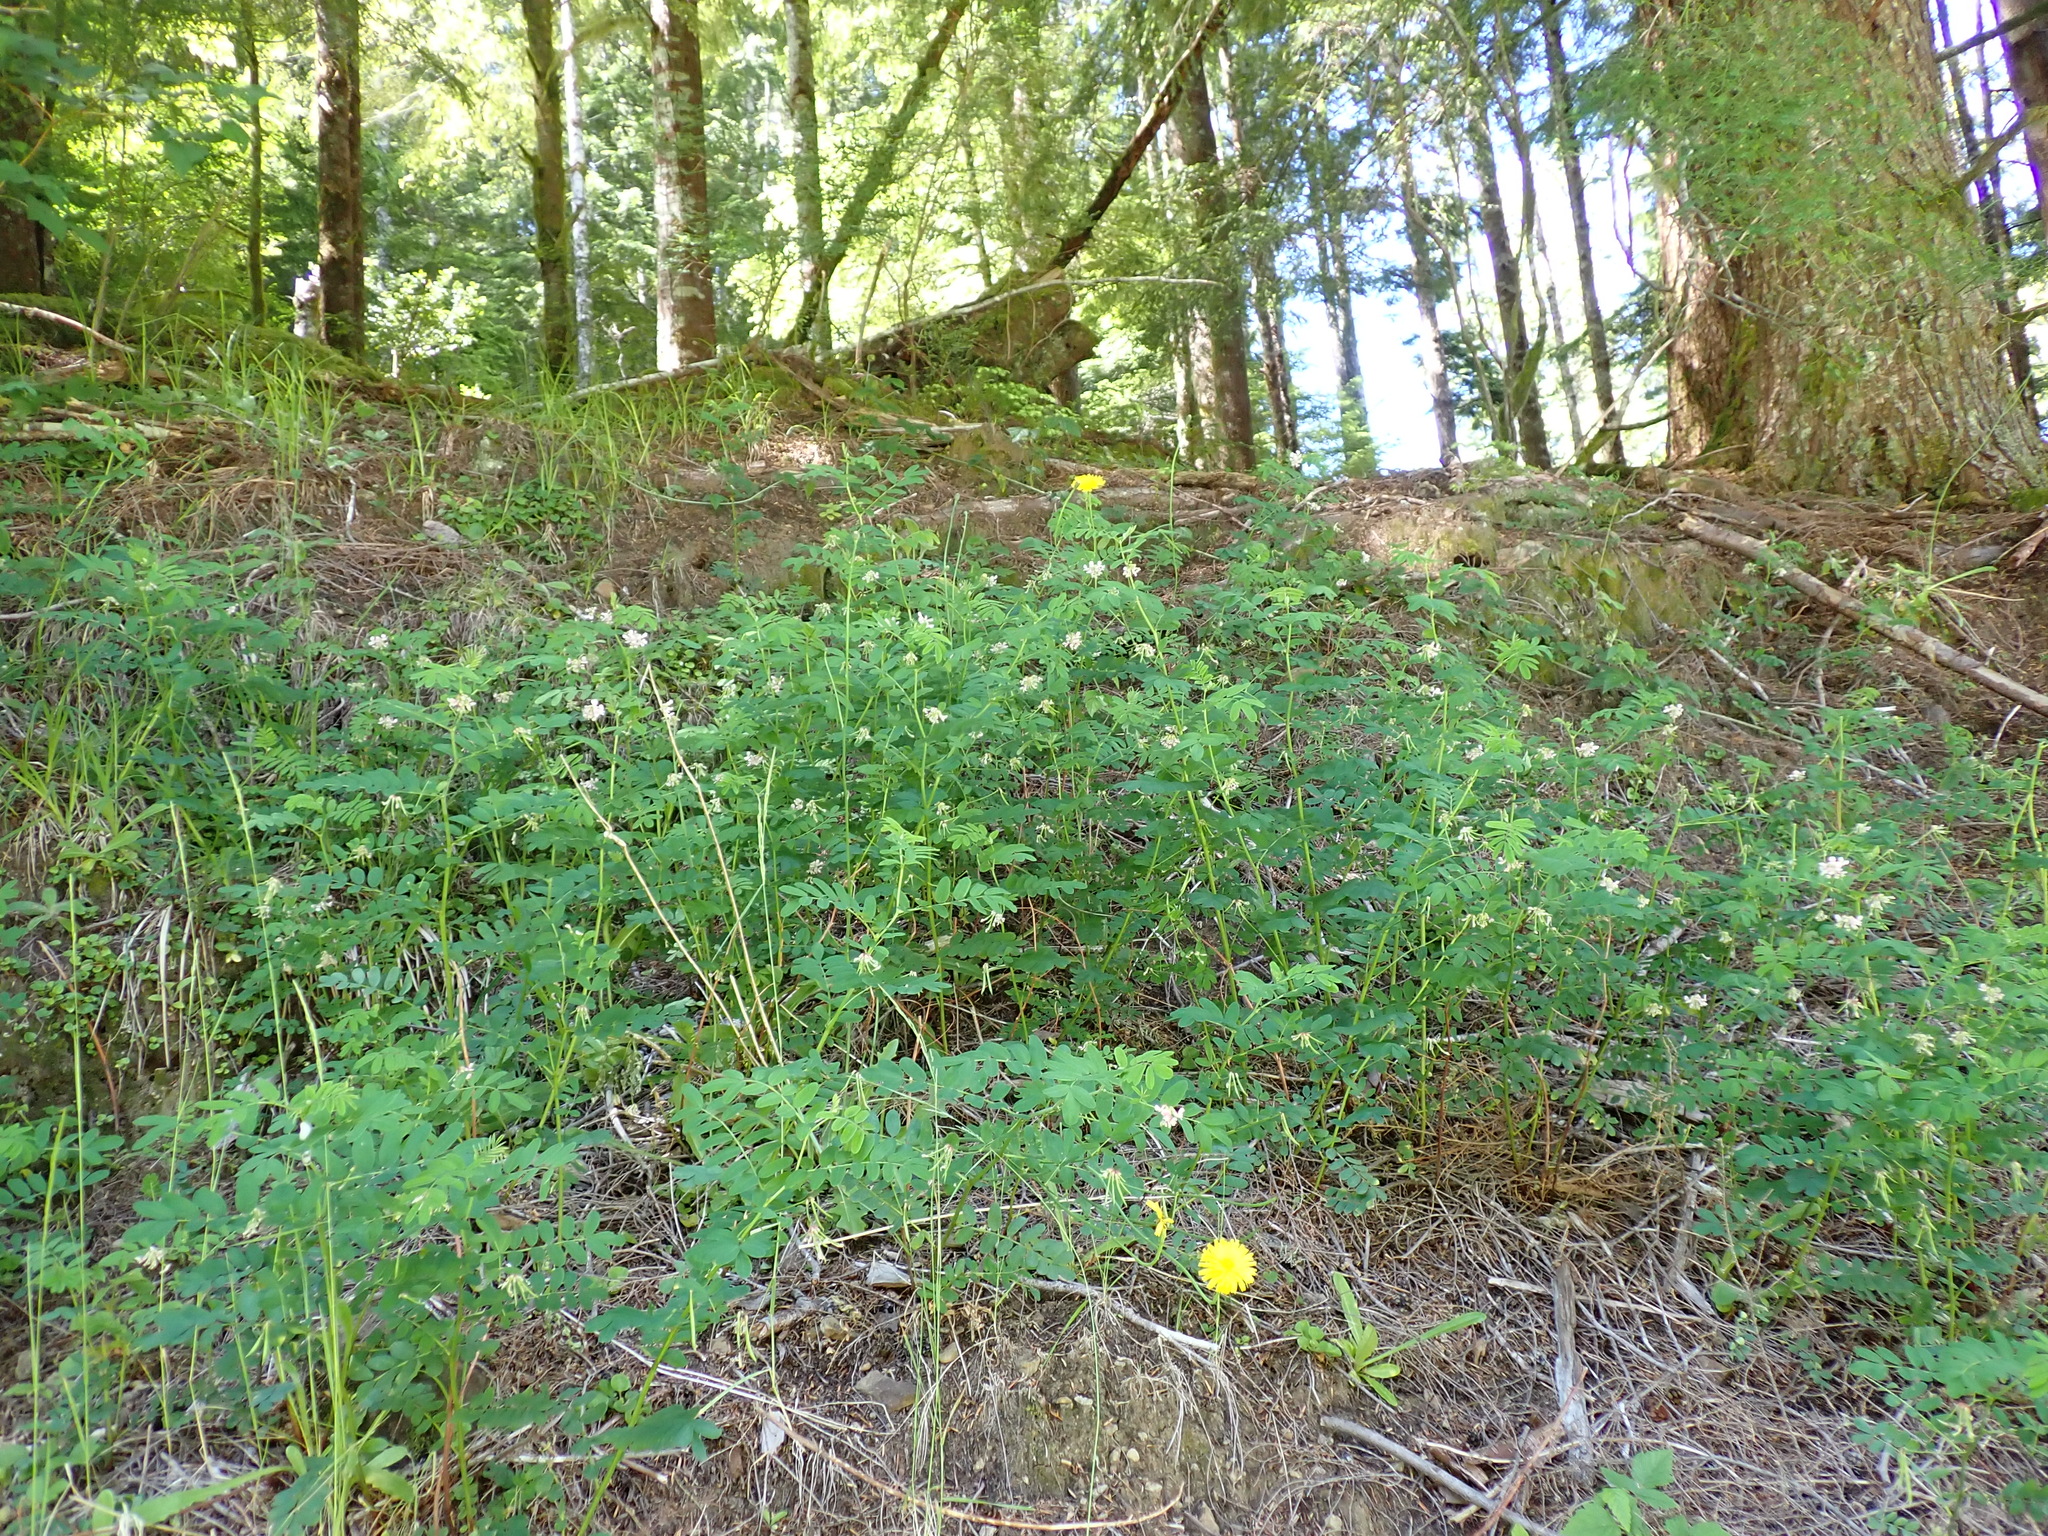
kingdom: Plantae
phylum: Tracheophyta
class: Magnoliopsida
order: Fabales
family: Fabaceae
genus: Hosackia
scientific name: Hosackia rosea
